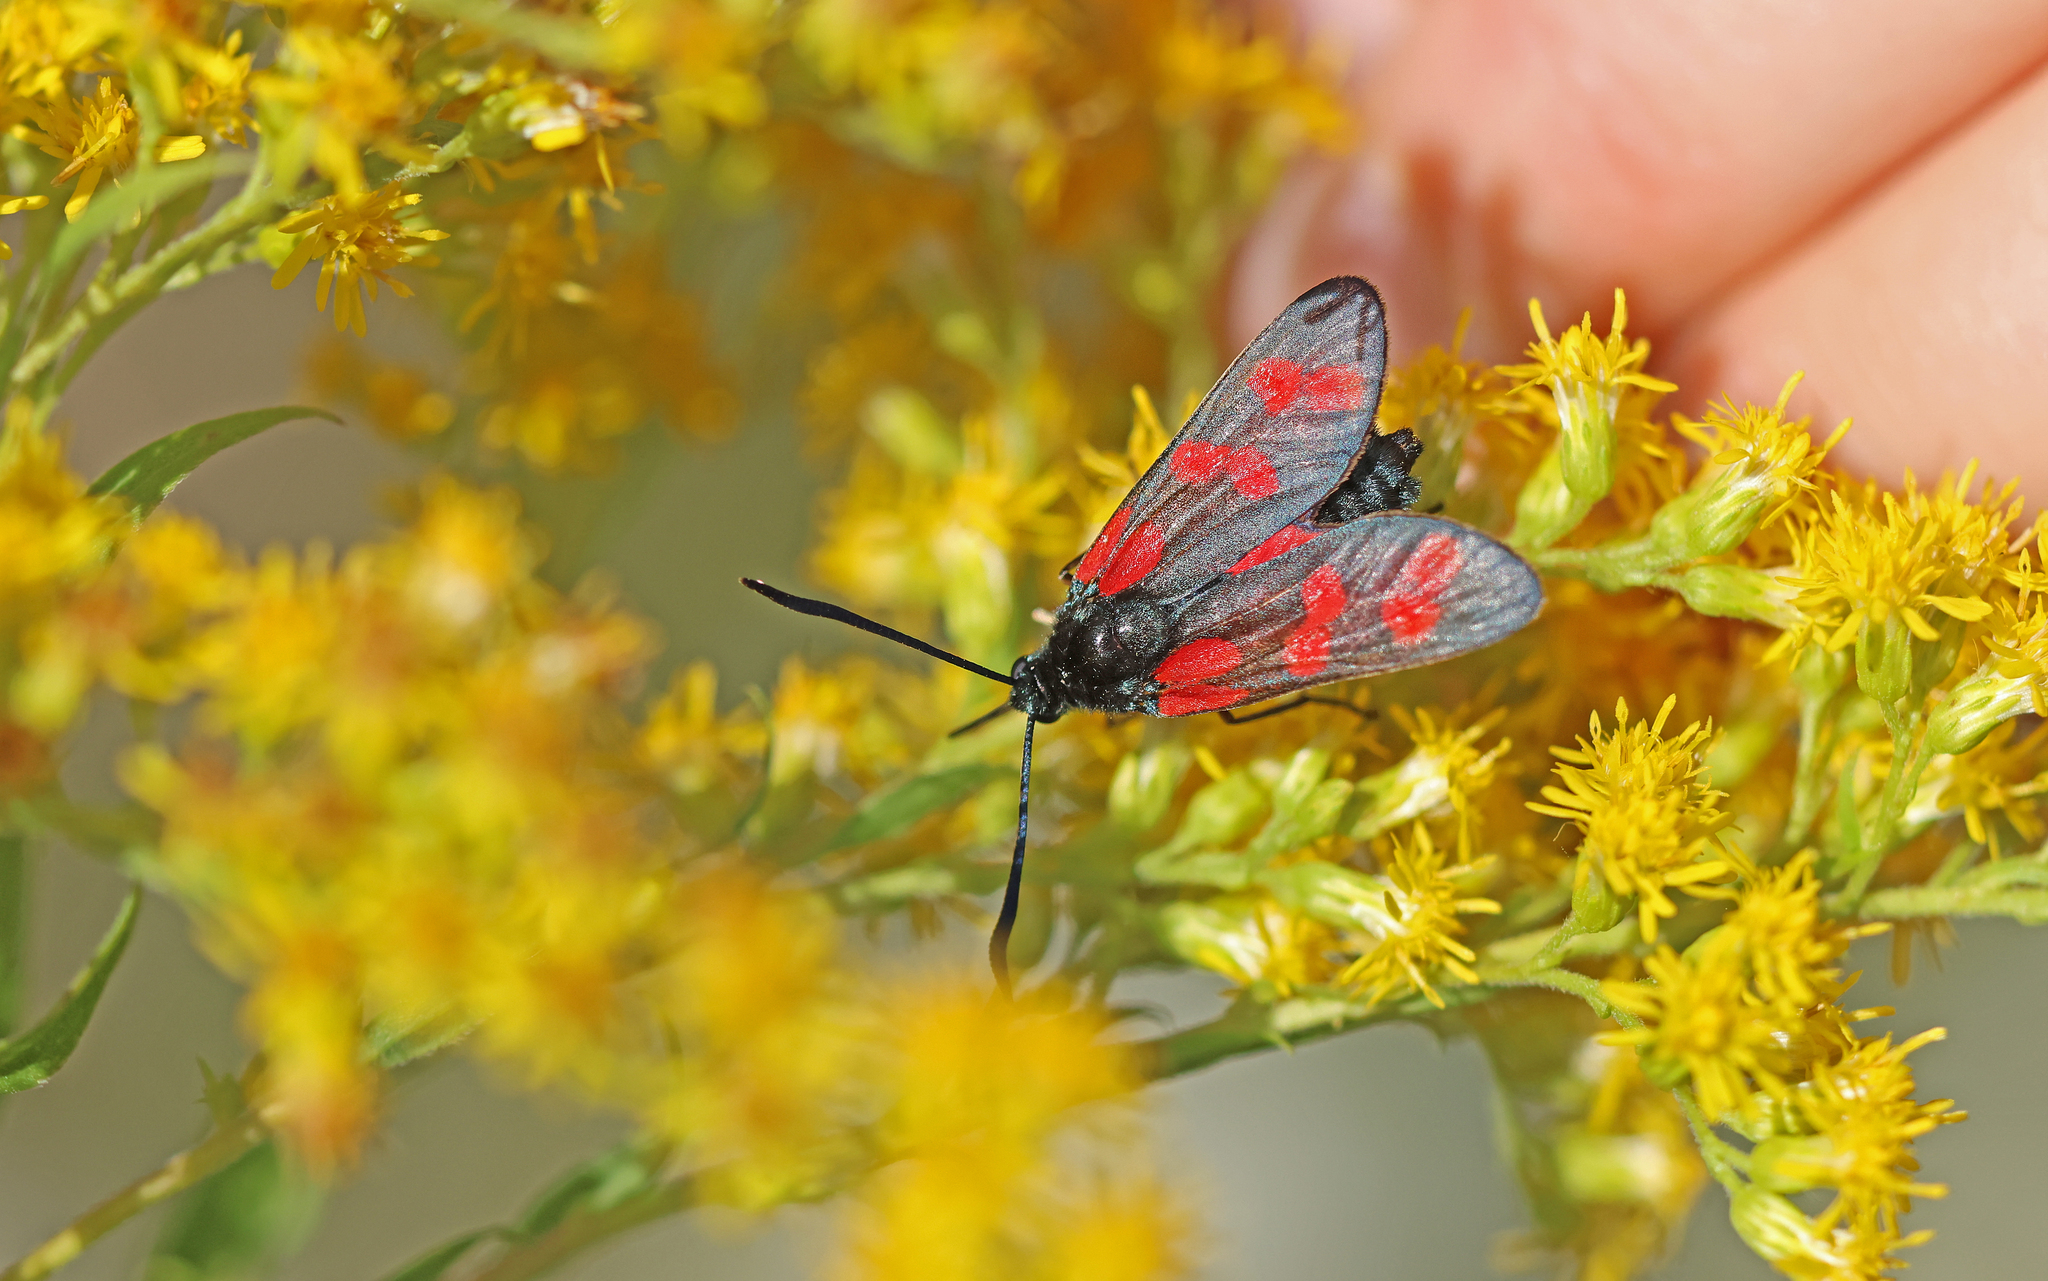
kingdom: Animalia
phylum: Arthropoda
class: Insecta
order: Lepidoptera
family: Zygaenidae
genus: Zygaena
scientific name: Zygaena filipendulae
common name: Six-spot burnet
